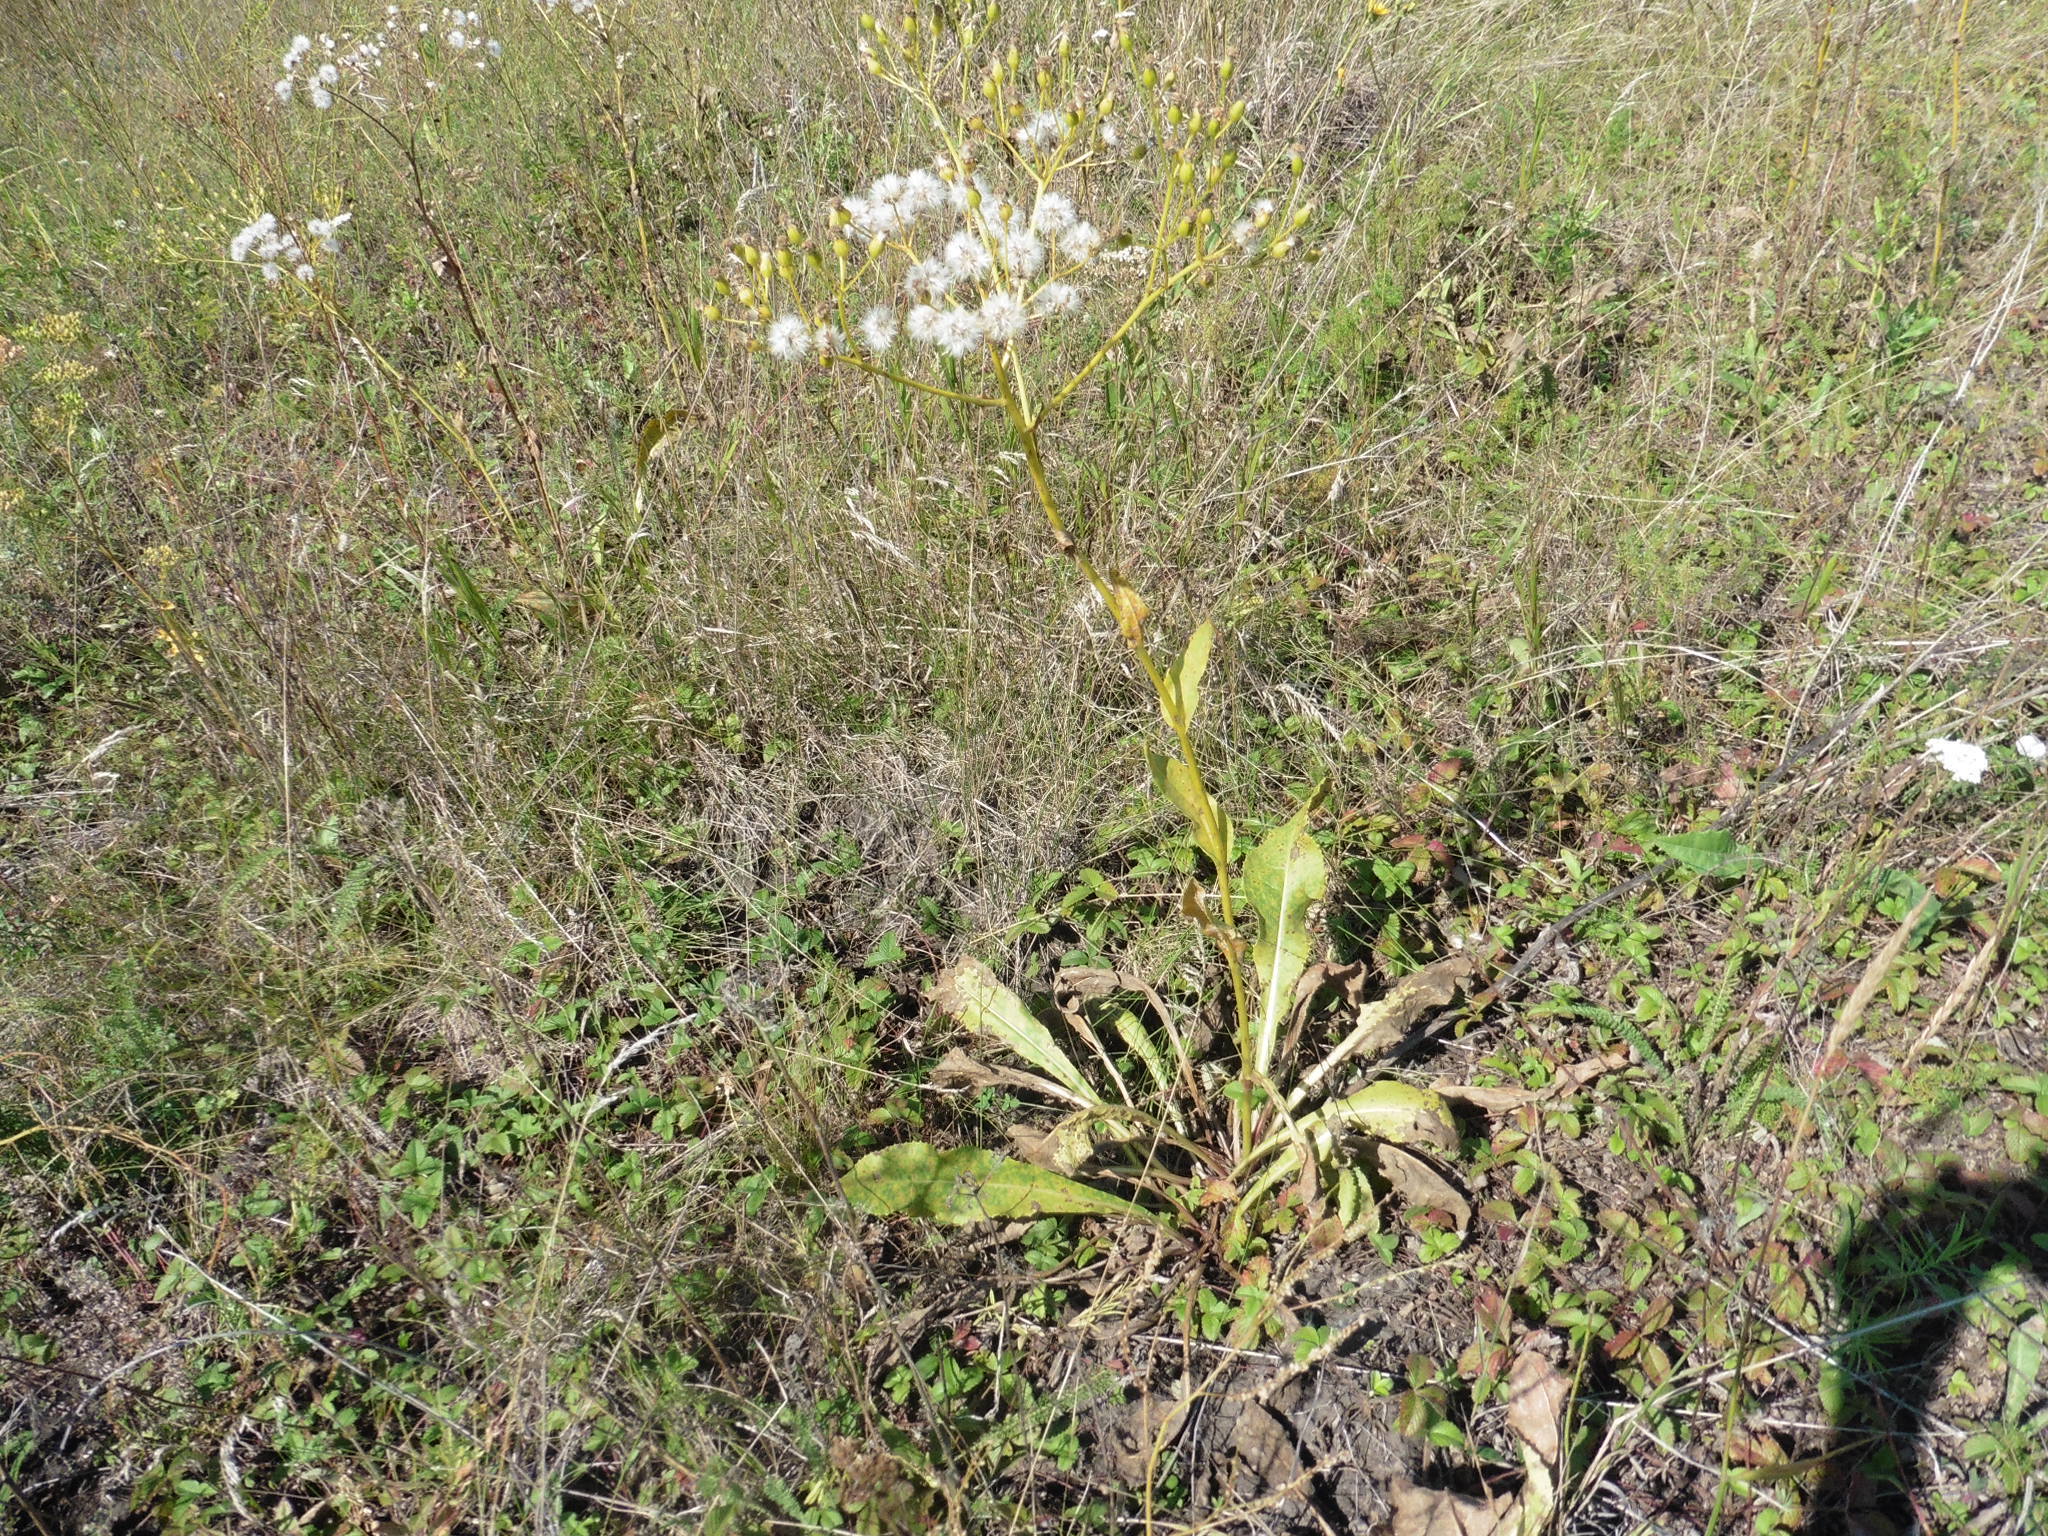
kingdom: Plantae
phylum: Tracheophyta
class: Magnoliopsida
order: Asterales
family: Asteraceae
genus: Senecio
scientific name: Senecio doria
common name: Golden ragwort
